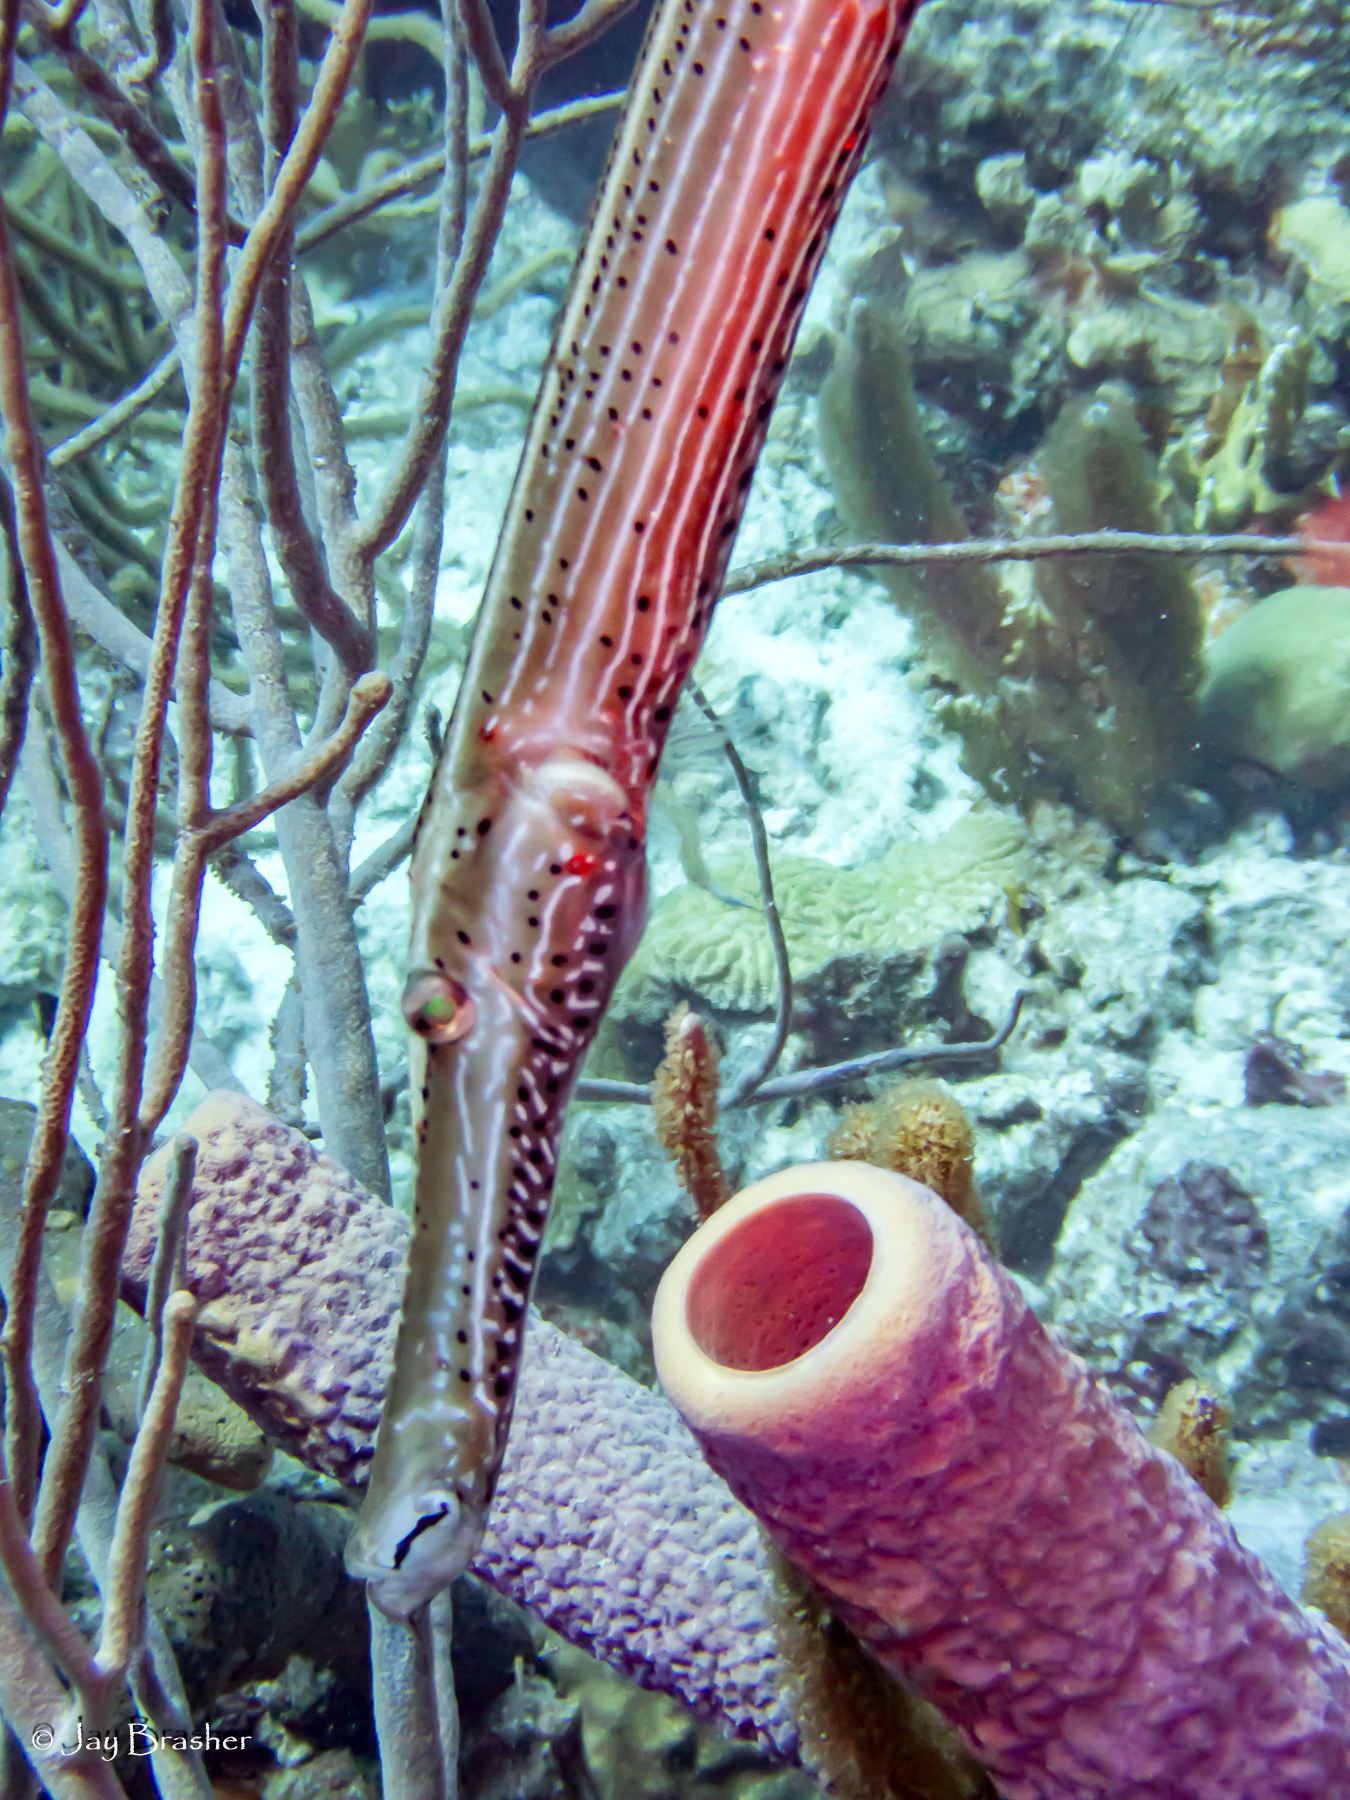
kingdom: Animalia
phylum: Chordata
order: Syngnathiformes
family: Aulostomidae
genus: Aulostomus
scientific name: Aulostomus maculatus
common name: West atlantic trumpetfish
